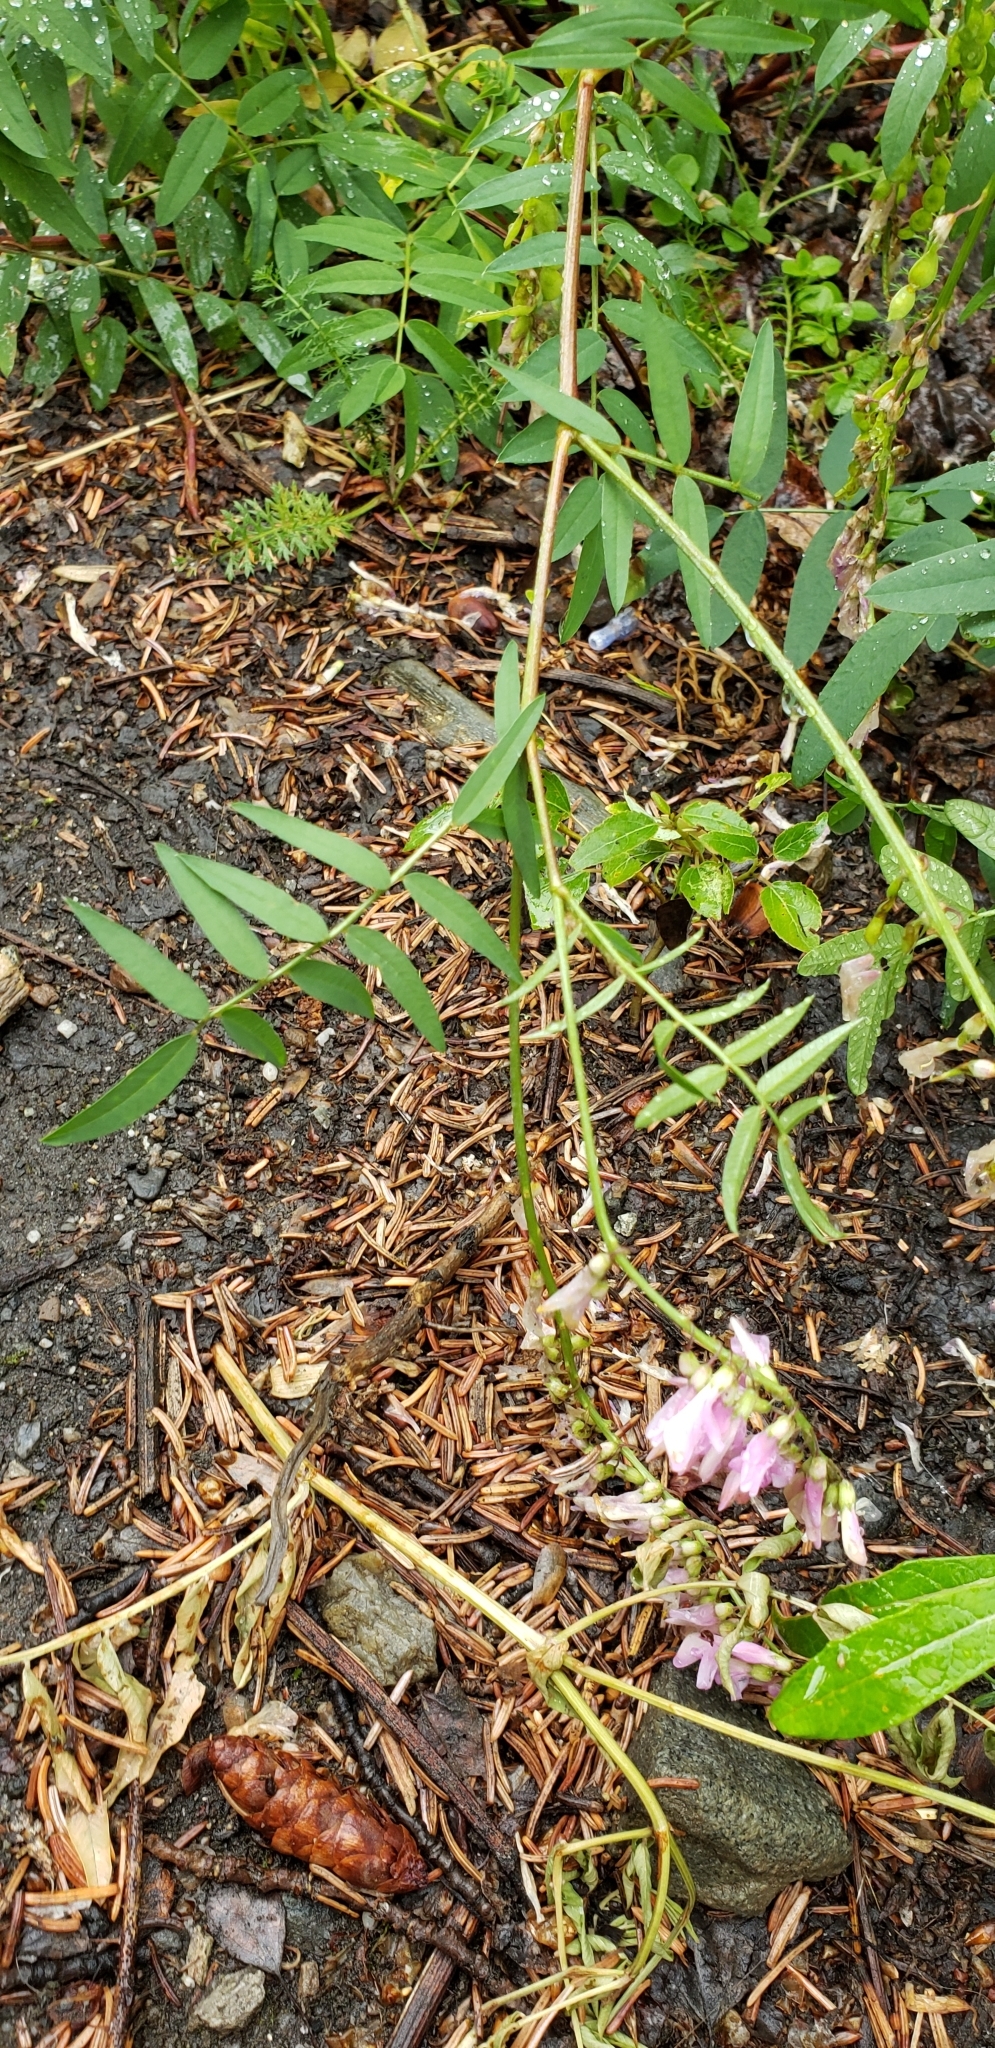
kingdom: Plantae
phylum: Tracheophyta
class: Magnoliopsida
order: Fabales
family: Fabaceae
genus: Hedysarum
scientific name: Hedysarum alpinum
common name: Alpine sweet-vetch
